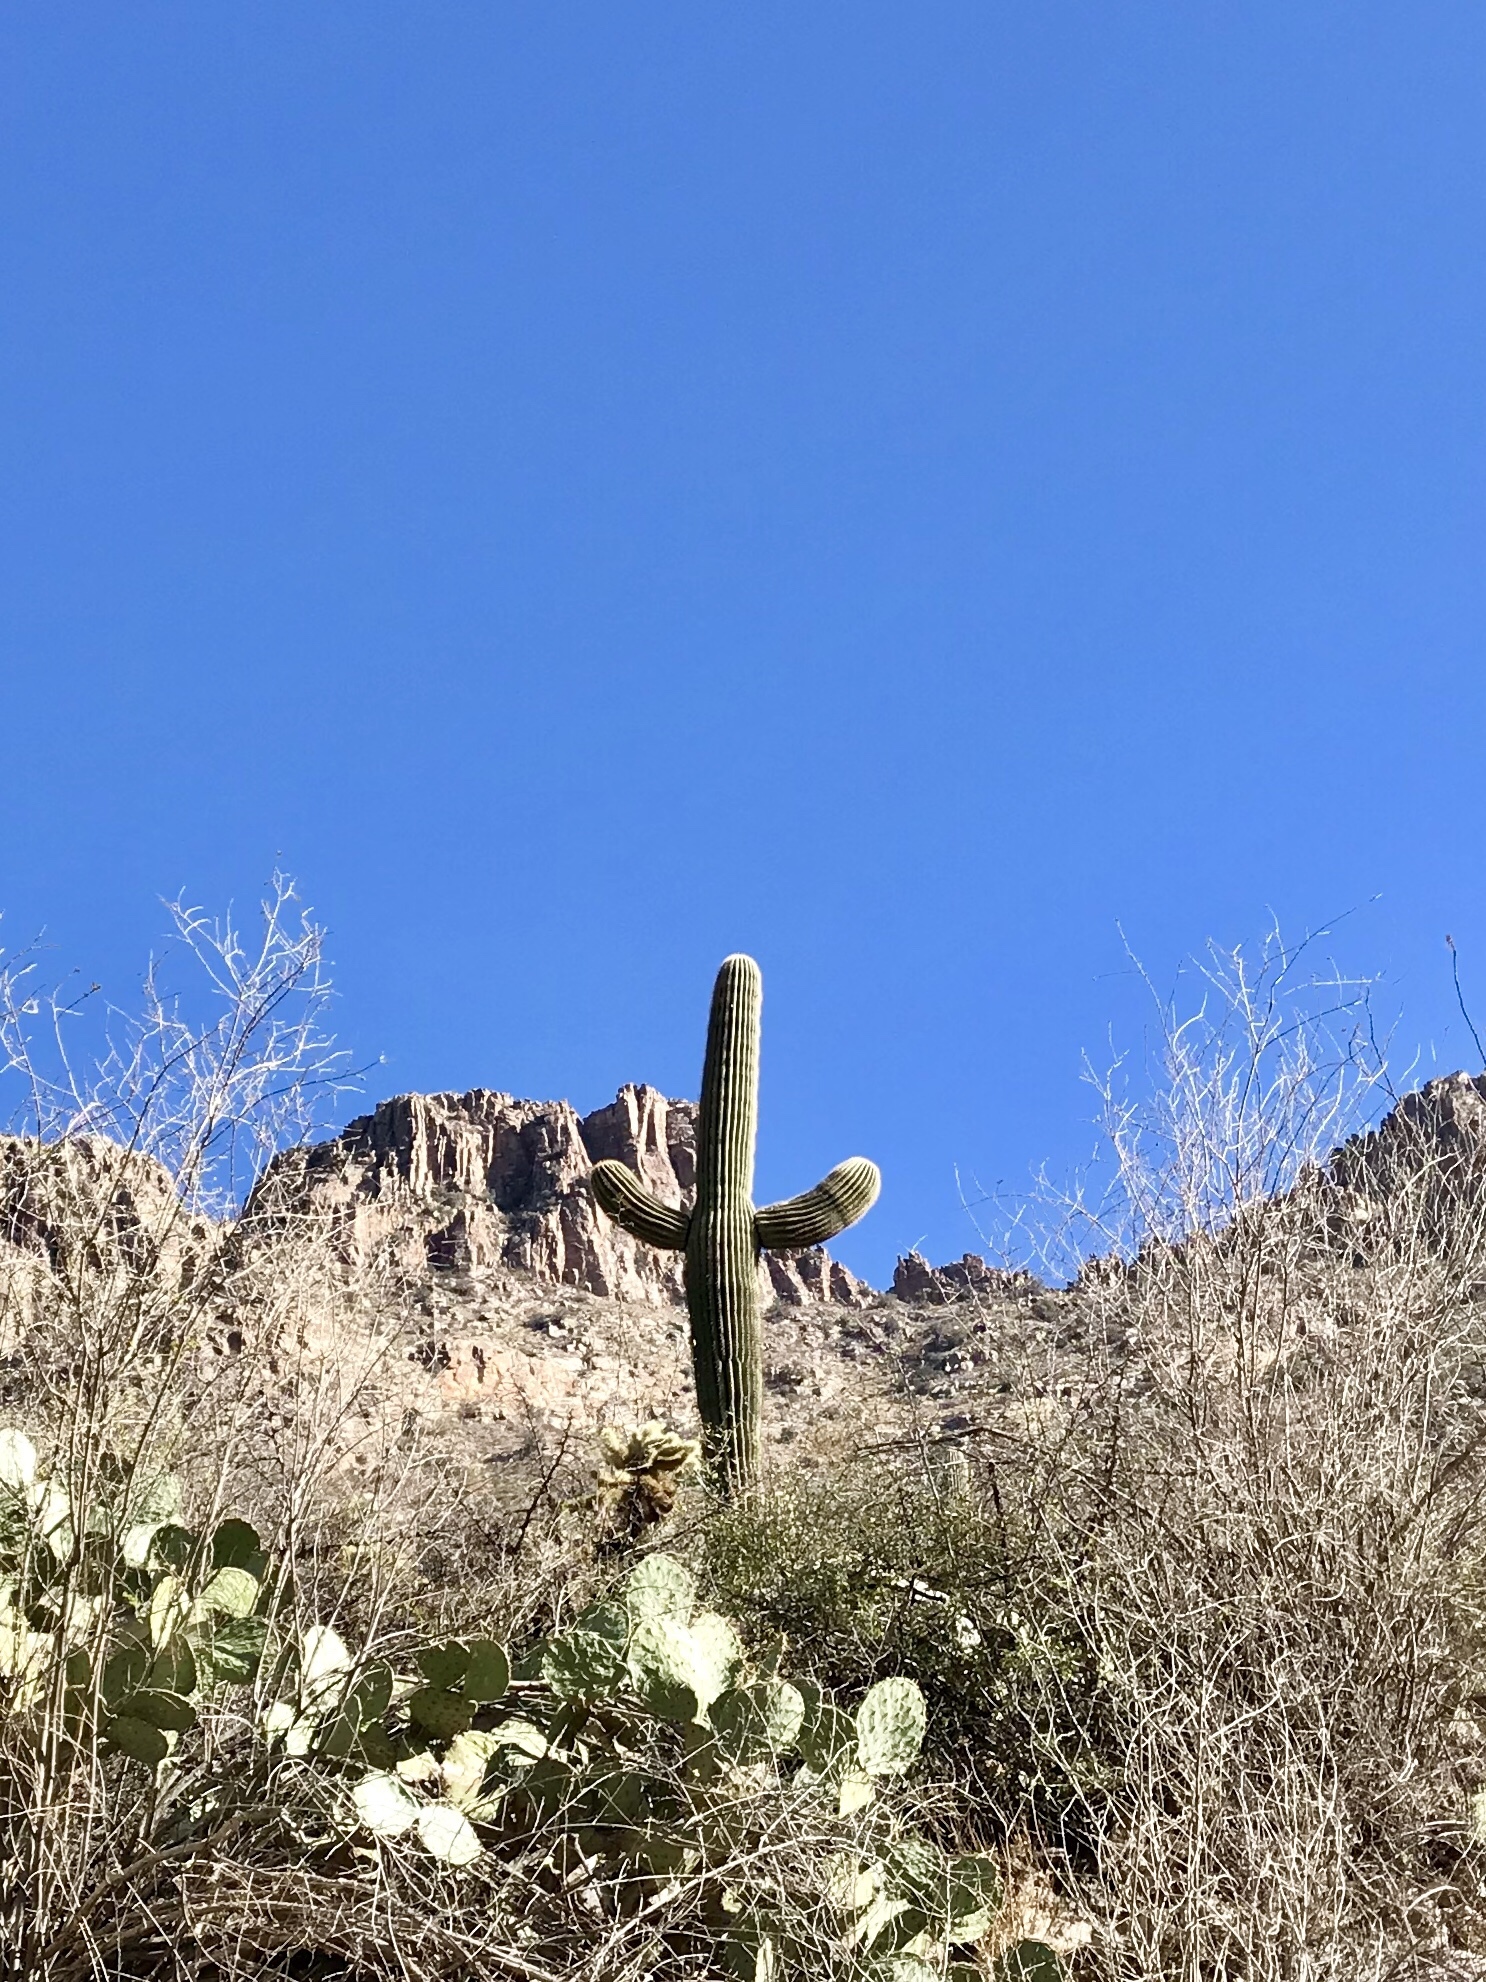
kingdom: Plantae
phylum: Tracheophyta
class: Magnoliopsida
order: Caryophyllales
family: Cactaceae
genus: Carnegiea
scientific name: Carnegiea gigantea
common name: Saguaro
